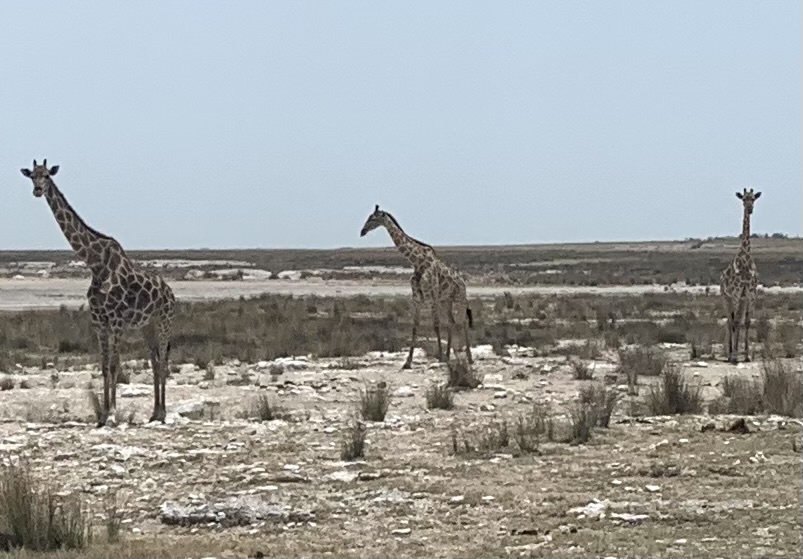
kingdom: Animalia
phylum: Chordata
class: Mammalia
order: Artiodactyla
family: Giraffidae
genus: Giraffa
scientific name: Giraffa giraffa
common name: Southern giraffe
